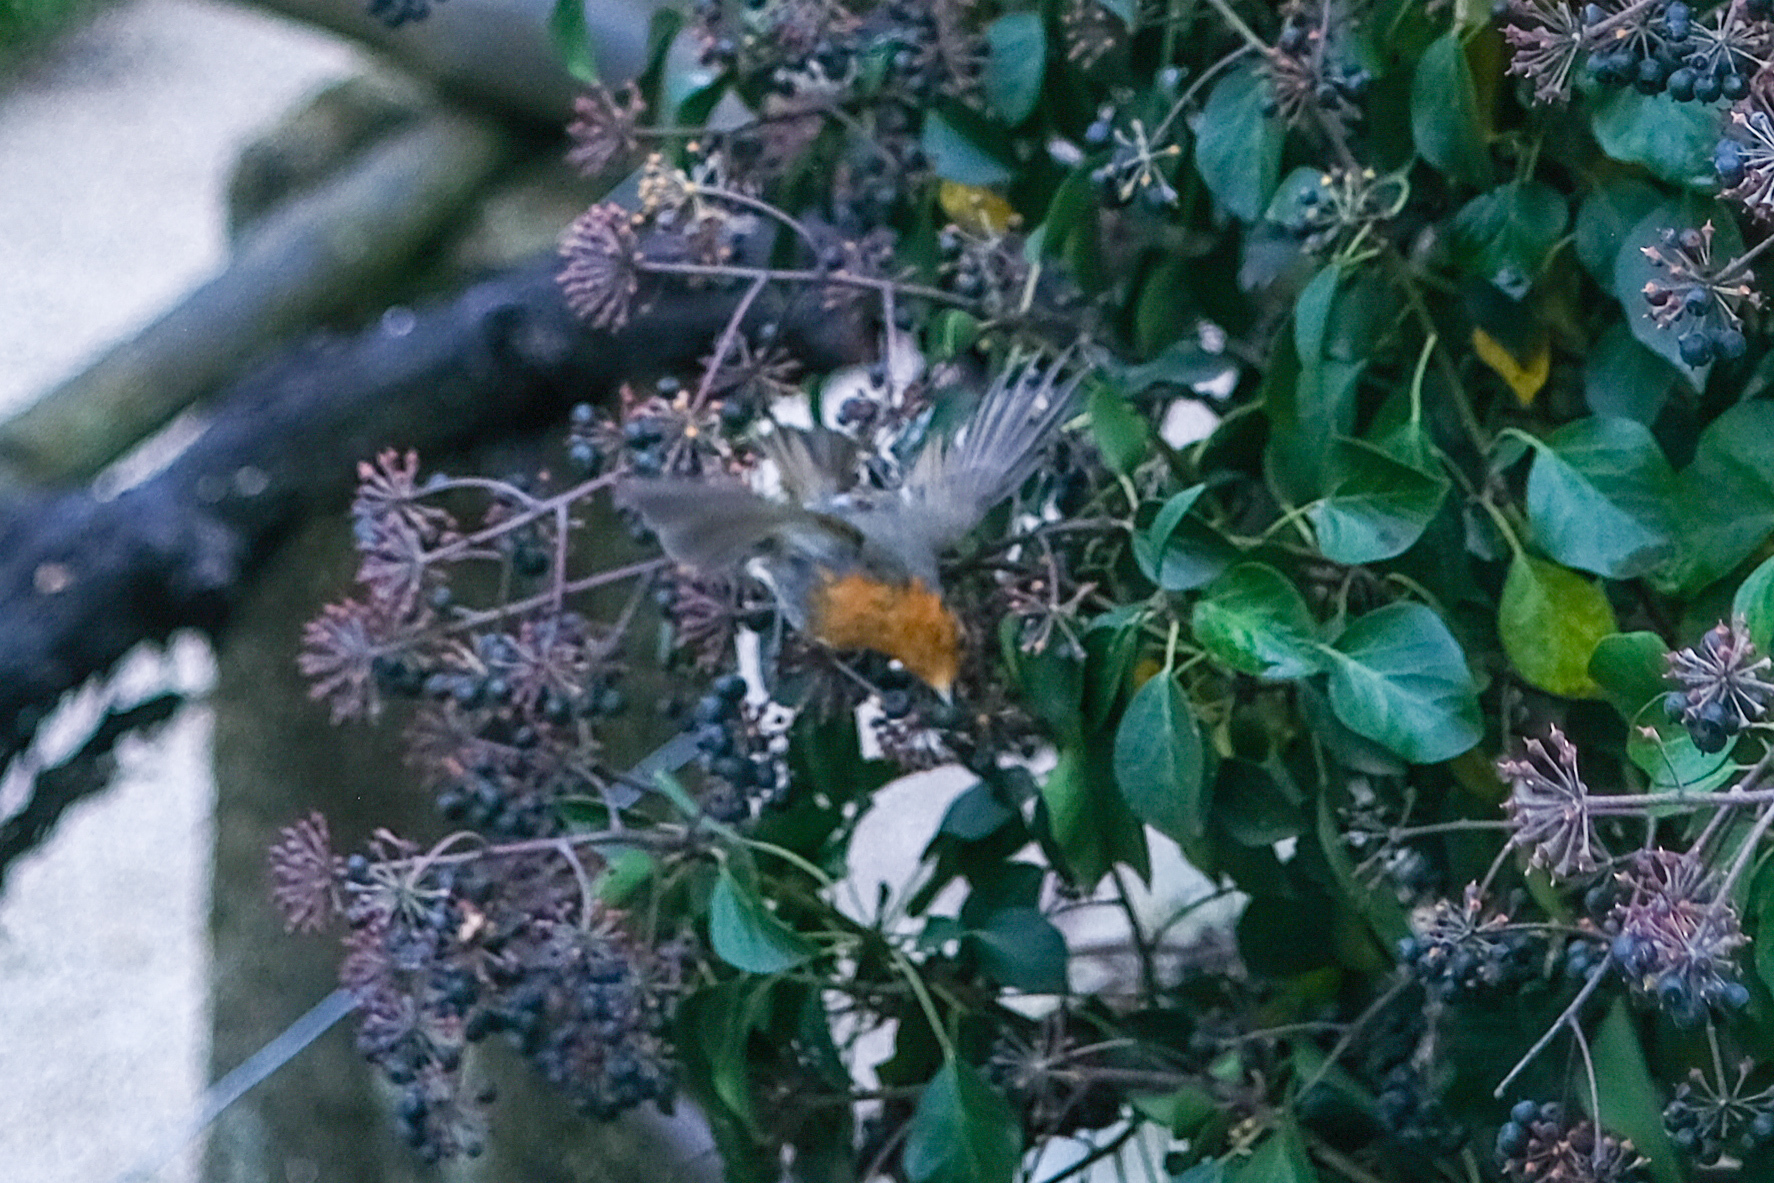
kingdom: Animalia
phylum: Chordata
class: Aves
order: Passeriformes
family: Muscicapidae
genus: Erithacus
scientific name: Erithacus rubecula
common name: European robin
